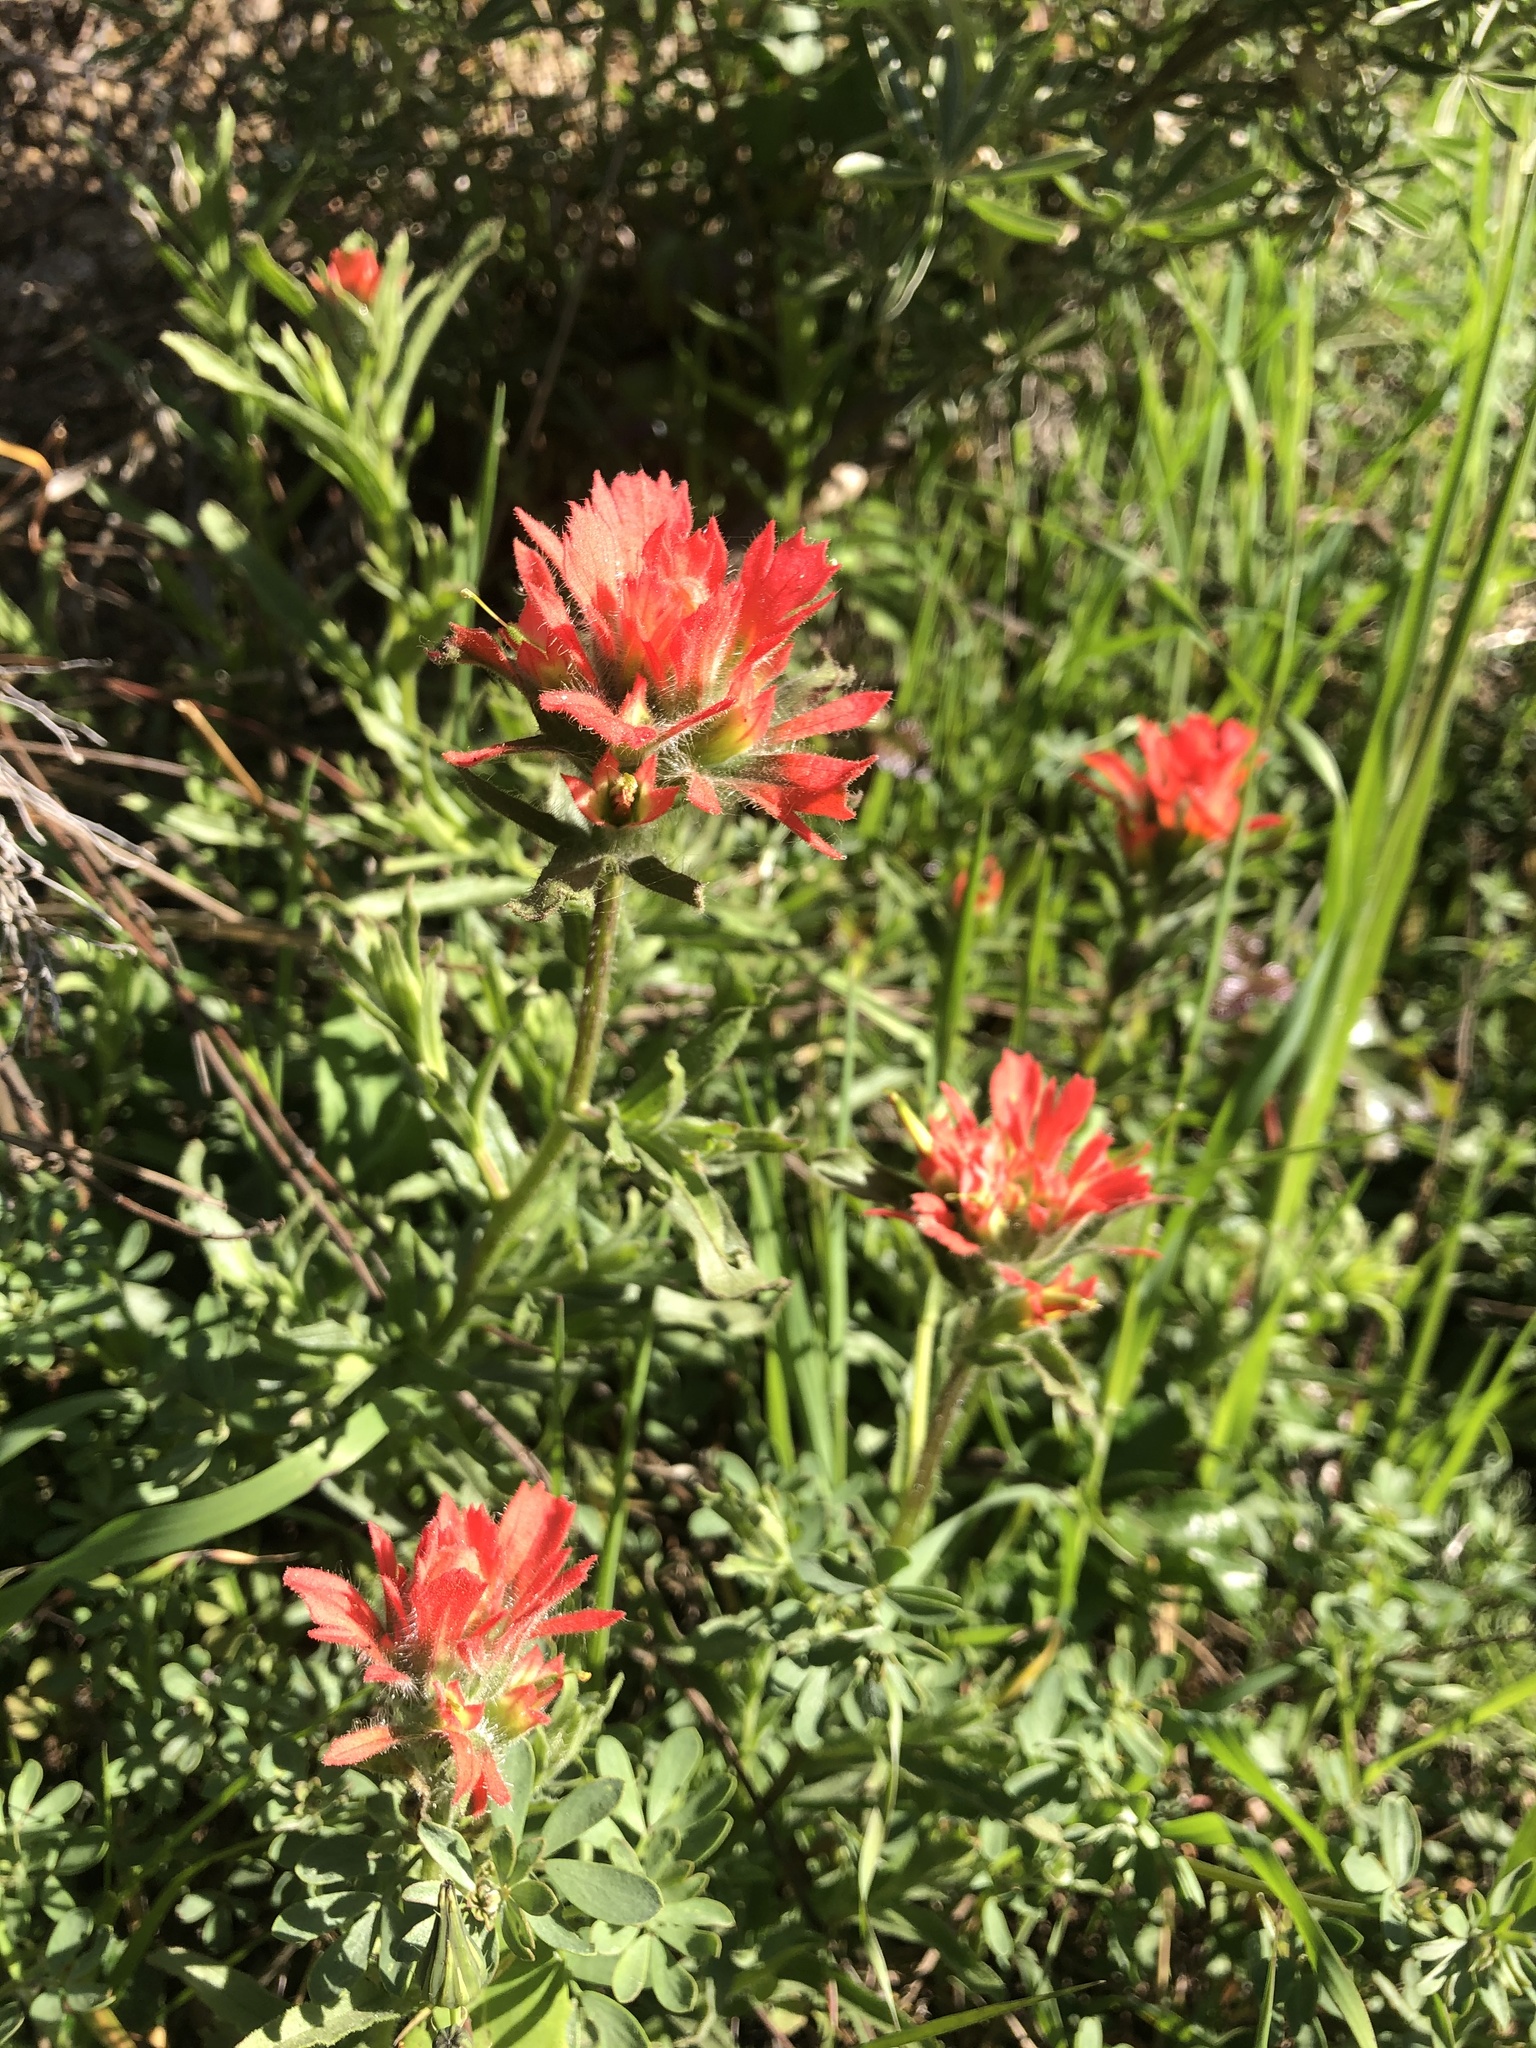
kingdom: Plantae
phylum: Tracheophyta
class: Magnoliopsida
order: Lamiales
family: Orobanchaceae
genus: Castilleja
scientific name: Castilleja affinis
